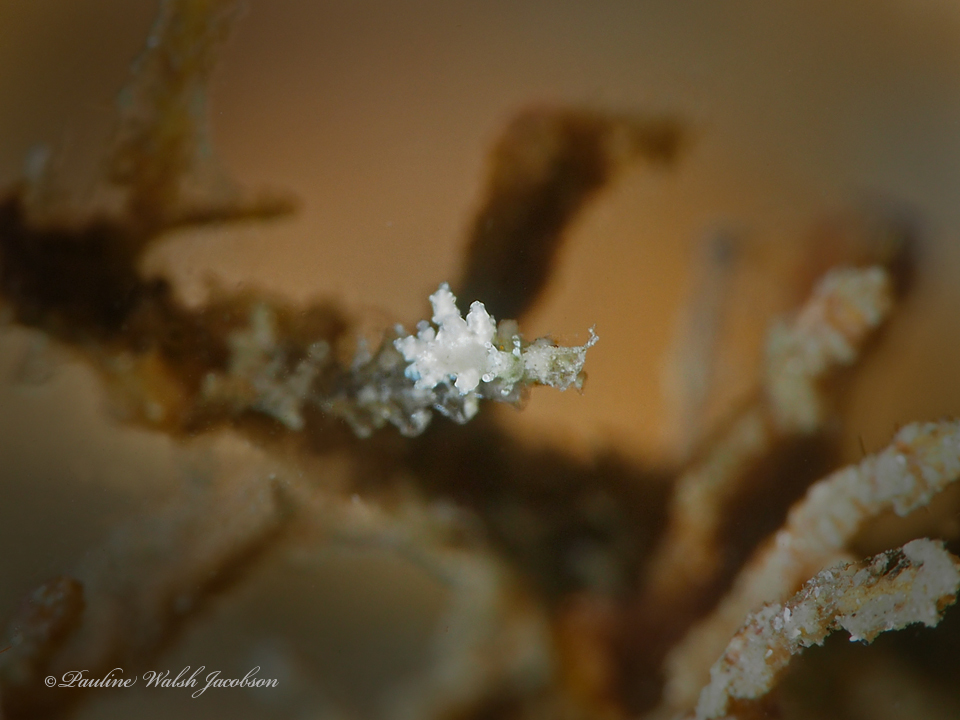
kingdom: Animalia
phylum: Mollusca
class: Gastropoda
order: Nudibranchia
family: Eubranchidae
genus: Eubranchus
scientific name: Eubranchus conicla
